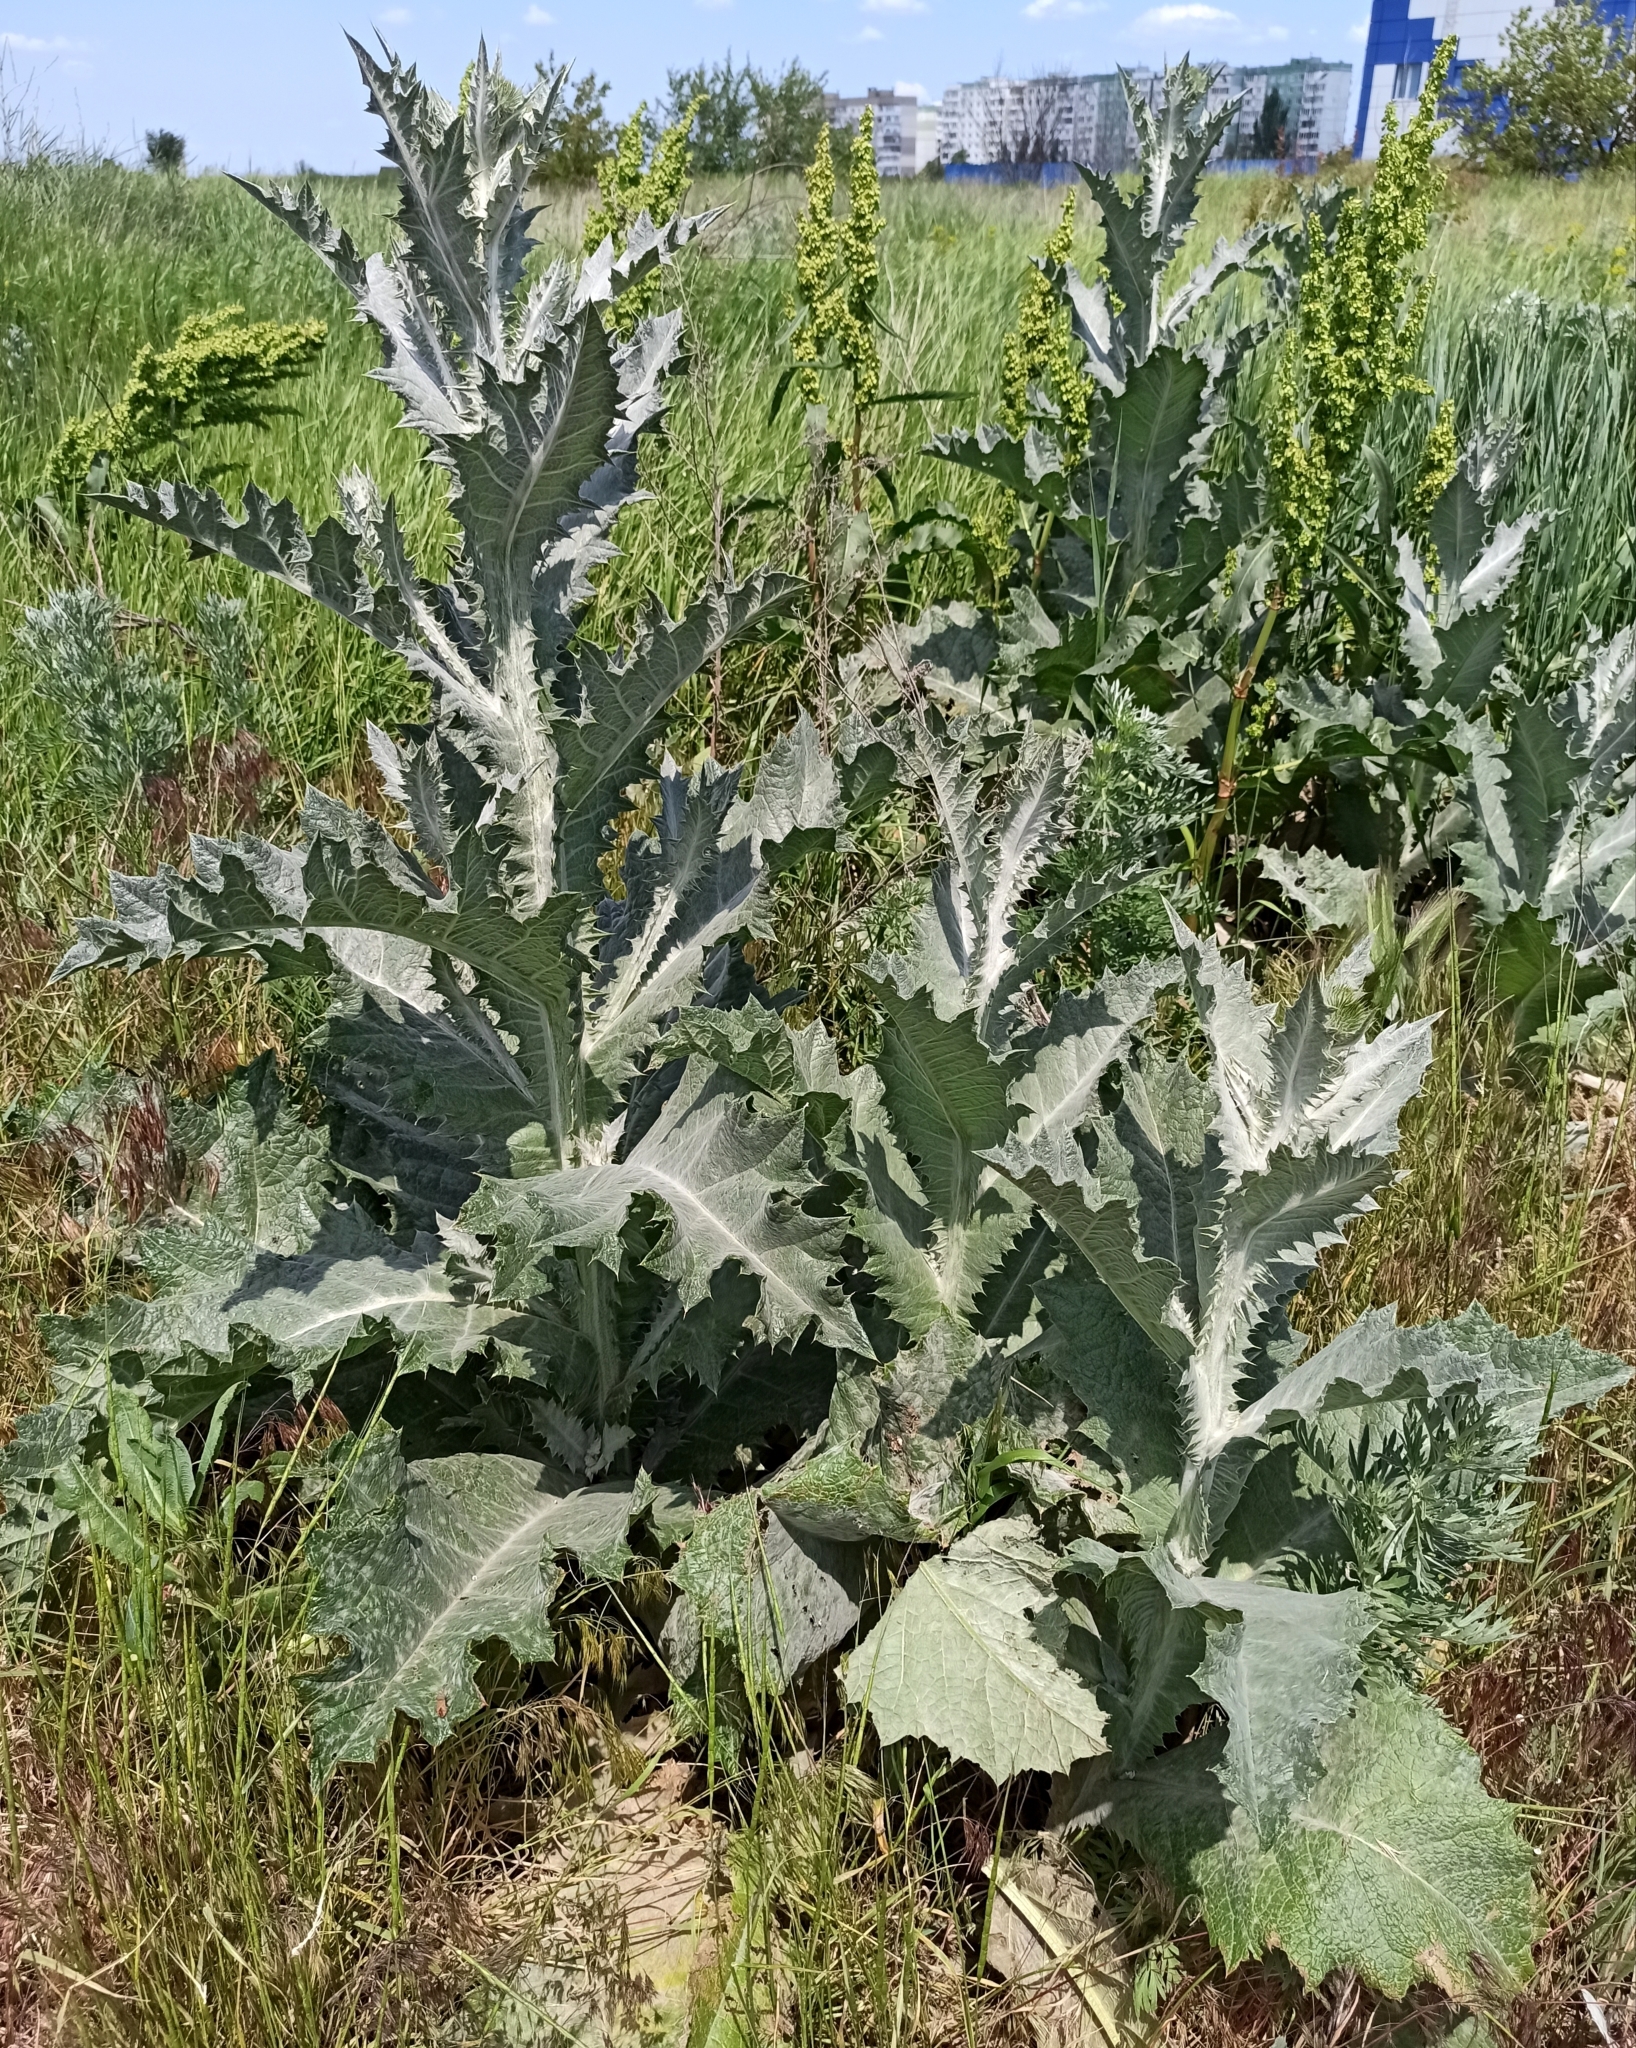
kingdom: Plantae
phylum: Tracheophyta
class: Magnoliopsida
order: Asterales
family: Asteraceae
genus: Onopordum
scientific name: Onopordum acanthium
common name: Scotch thistle
